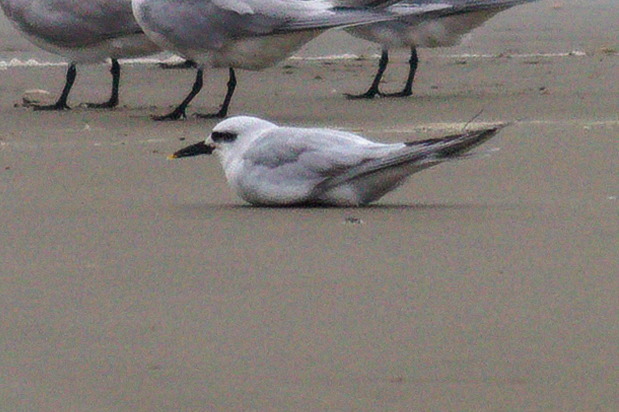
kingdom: Animalia
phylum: Chordata
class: Aves
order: Charadriiformes
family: Laridae
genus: Sterna
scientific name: Sterna trudeaui
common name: Snowy-crowned tern
